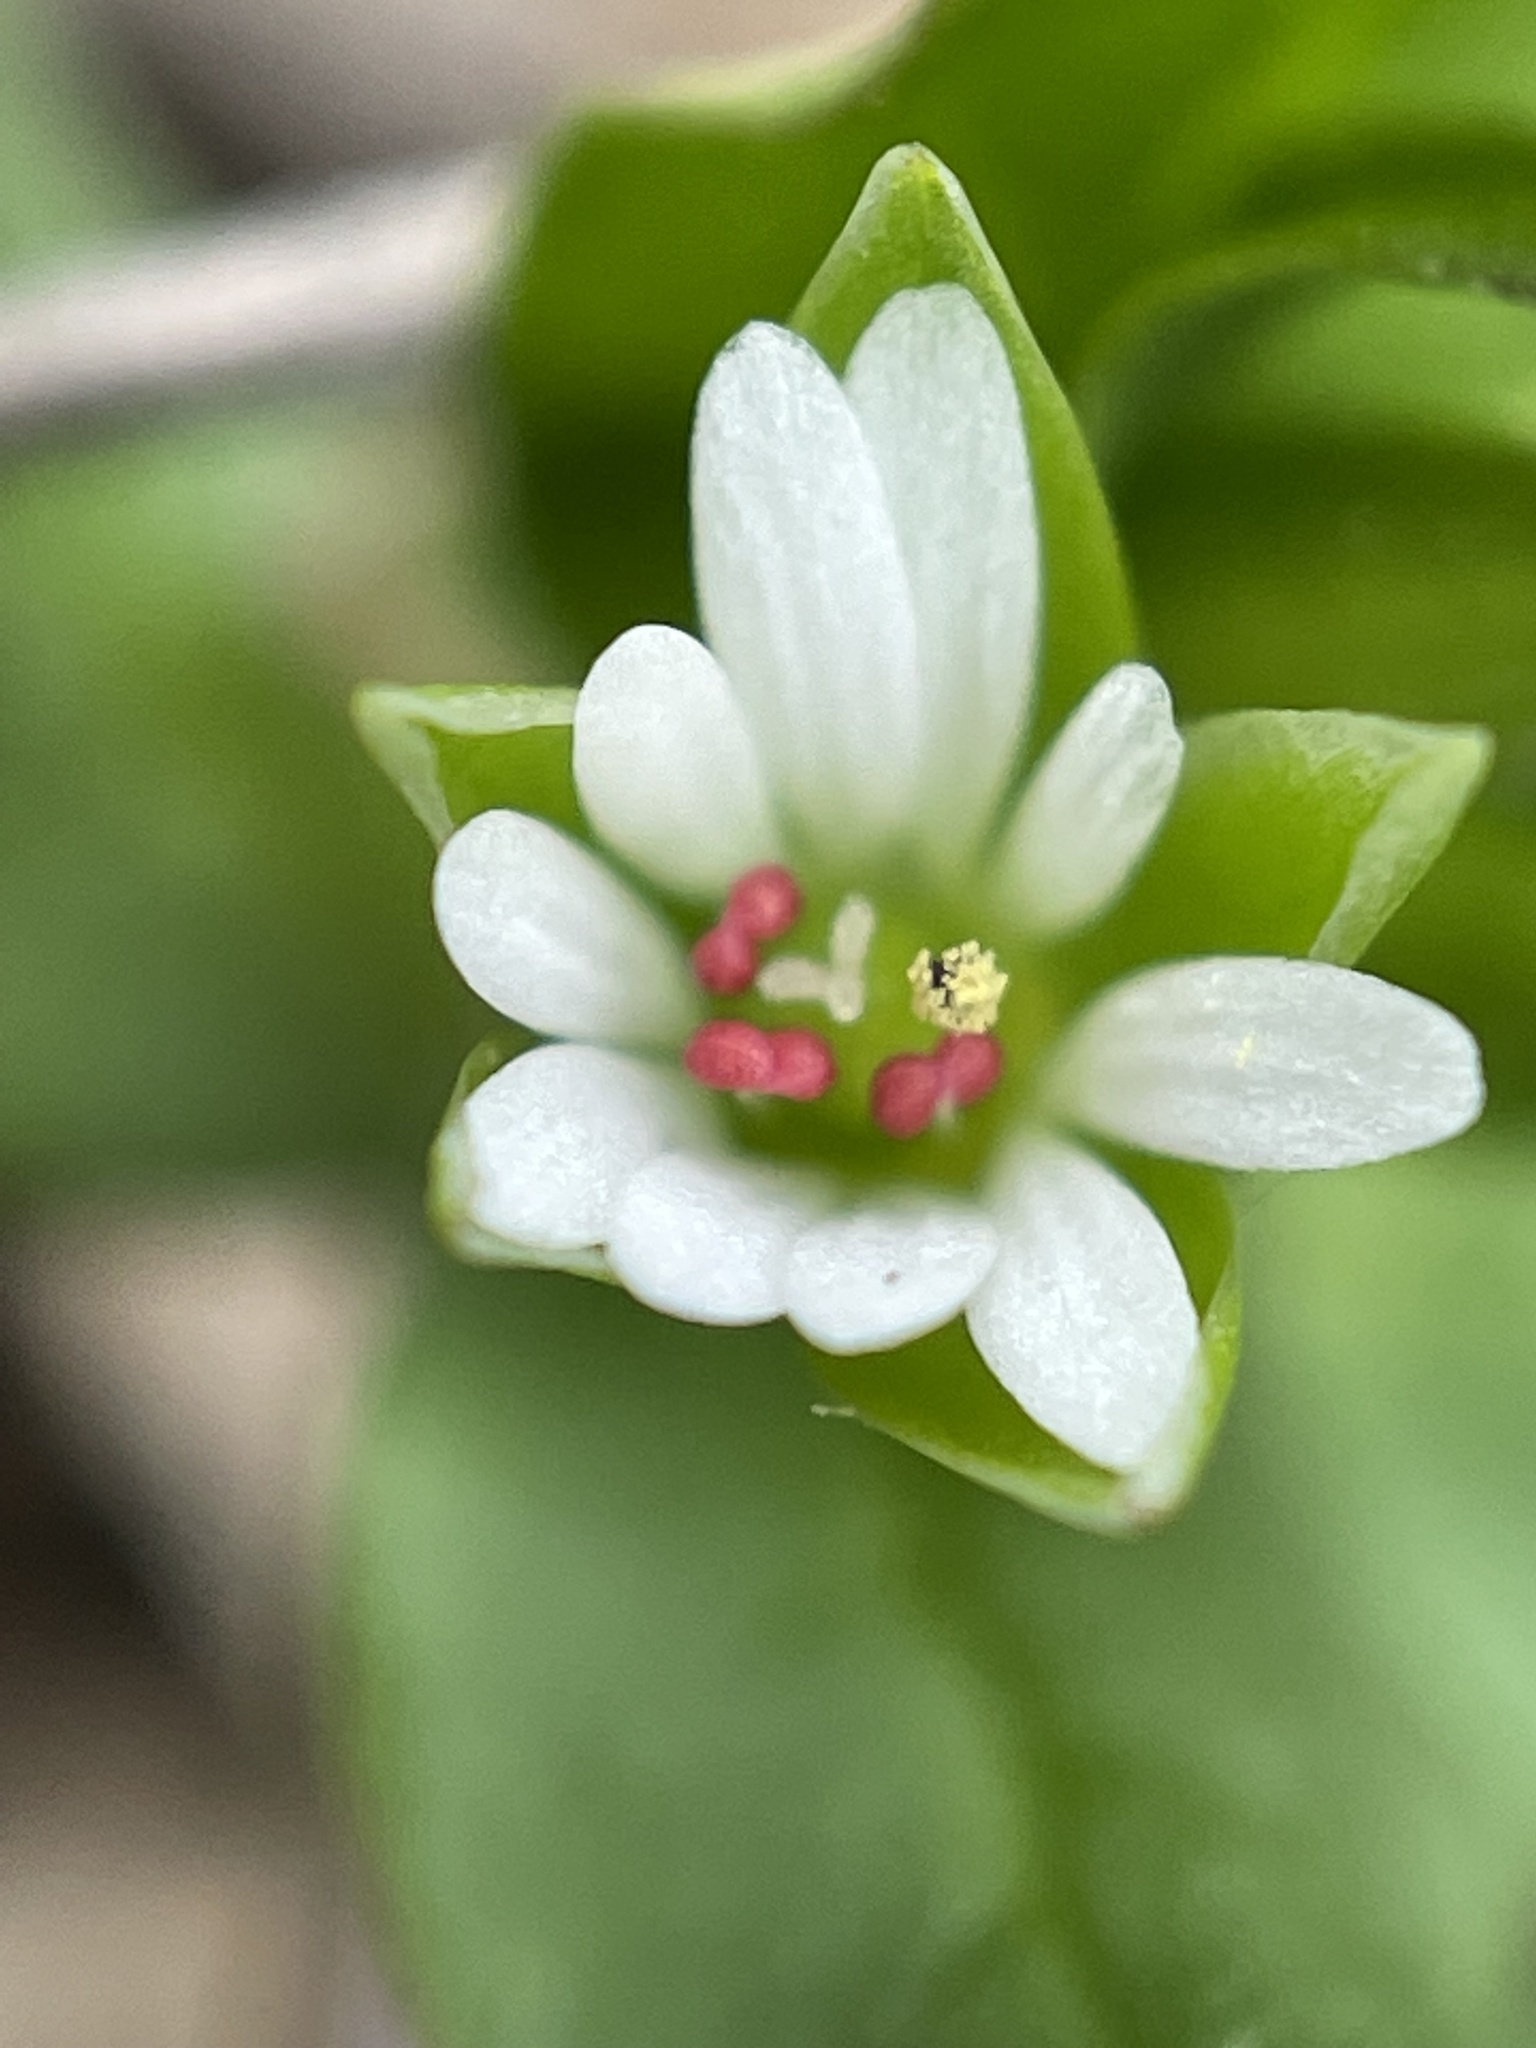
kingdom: Plantae
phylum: Tracheophyta
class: Magnoliopsida
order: Caryophyllales
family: Caryophyllaceae
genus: Stellaria
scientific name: Stellaria media
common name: Common chickweed
